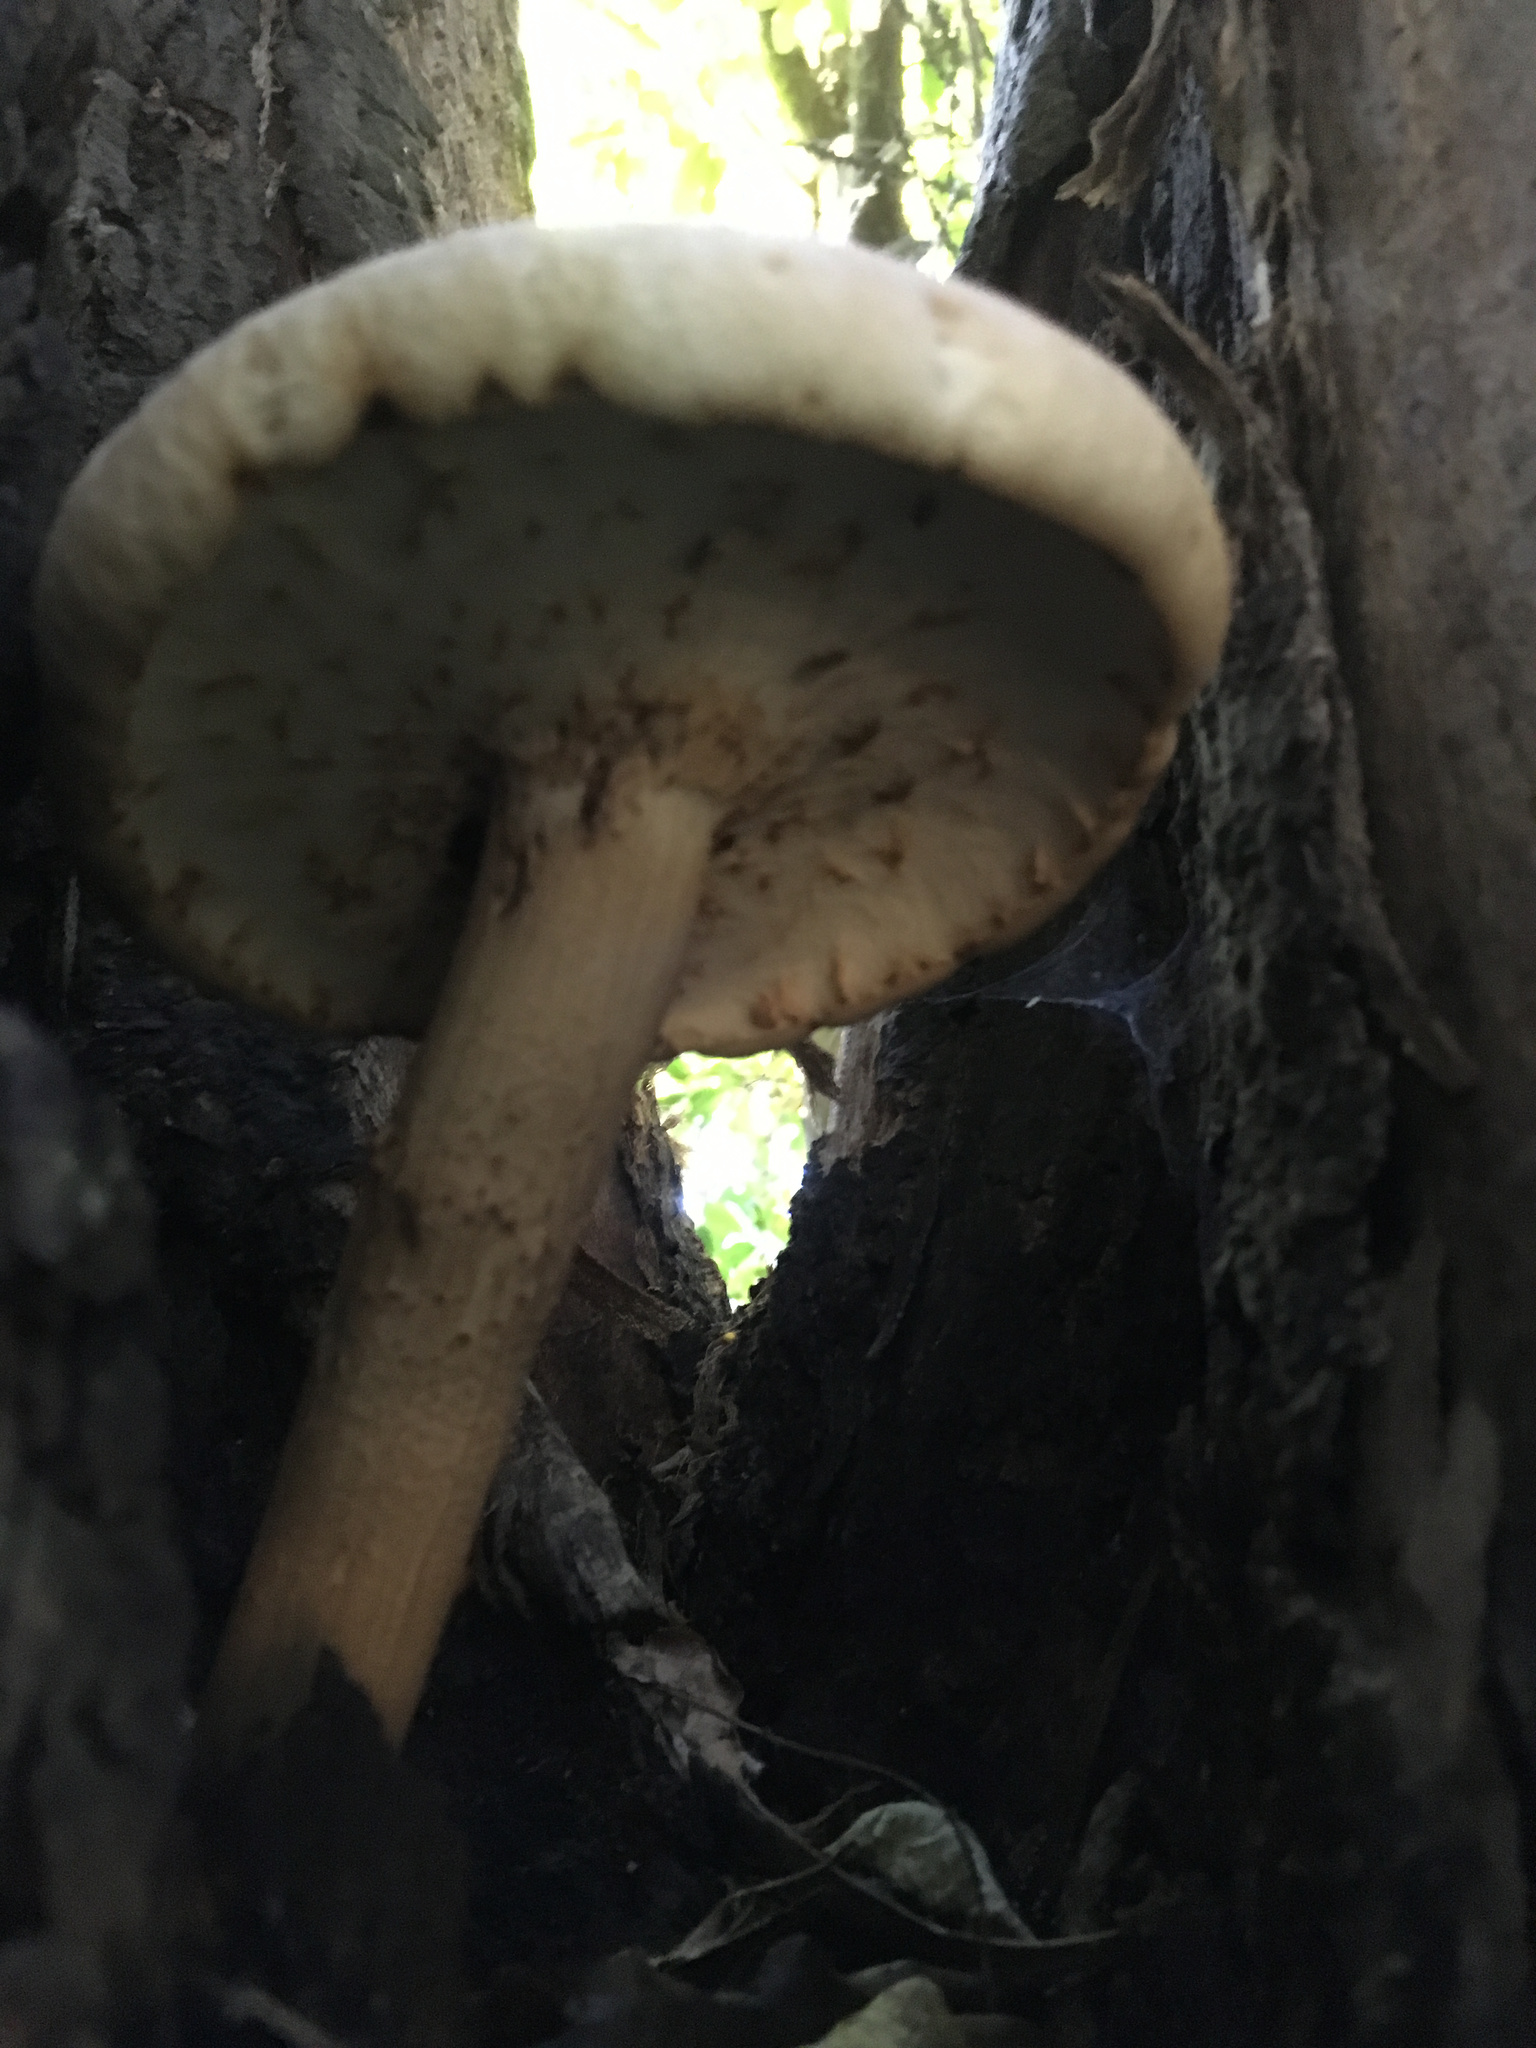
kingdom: Fungi
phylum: Basidiomycota
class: Agaricomycetes
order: Agaricales
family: Tubariaceae
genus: Cyclocybe
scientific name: Cyclocybe parasitica
